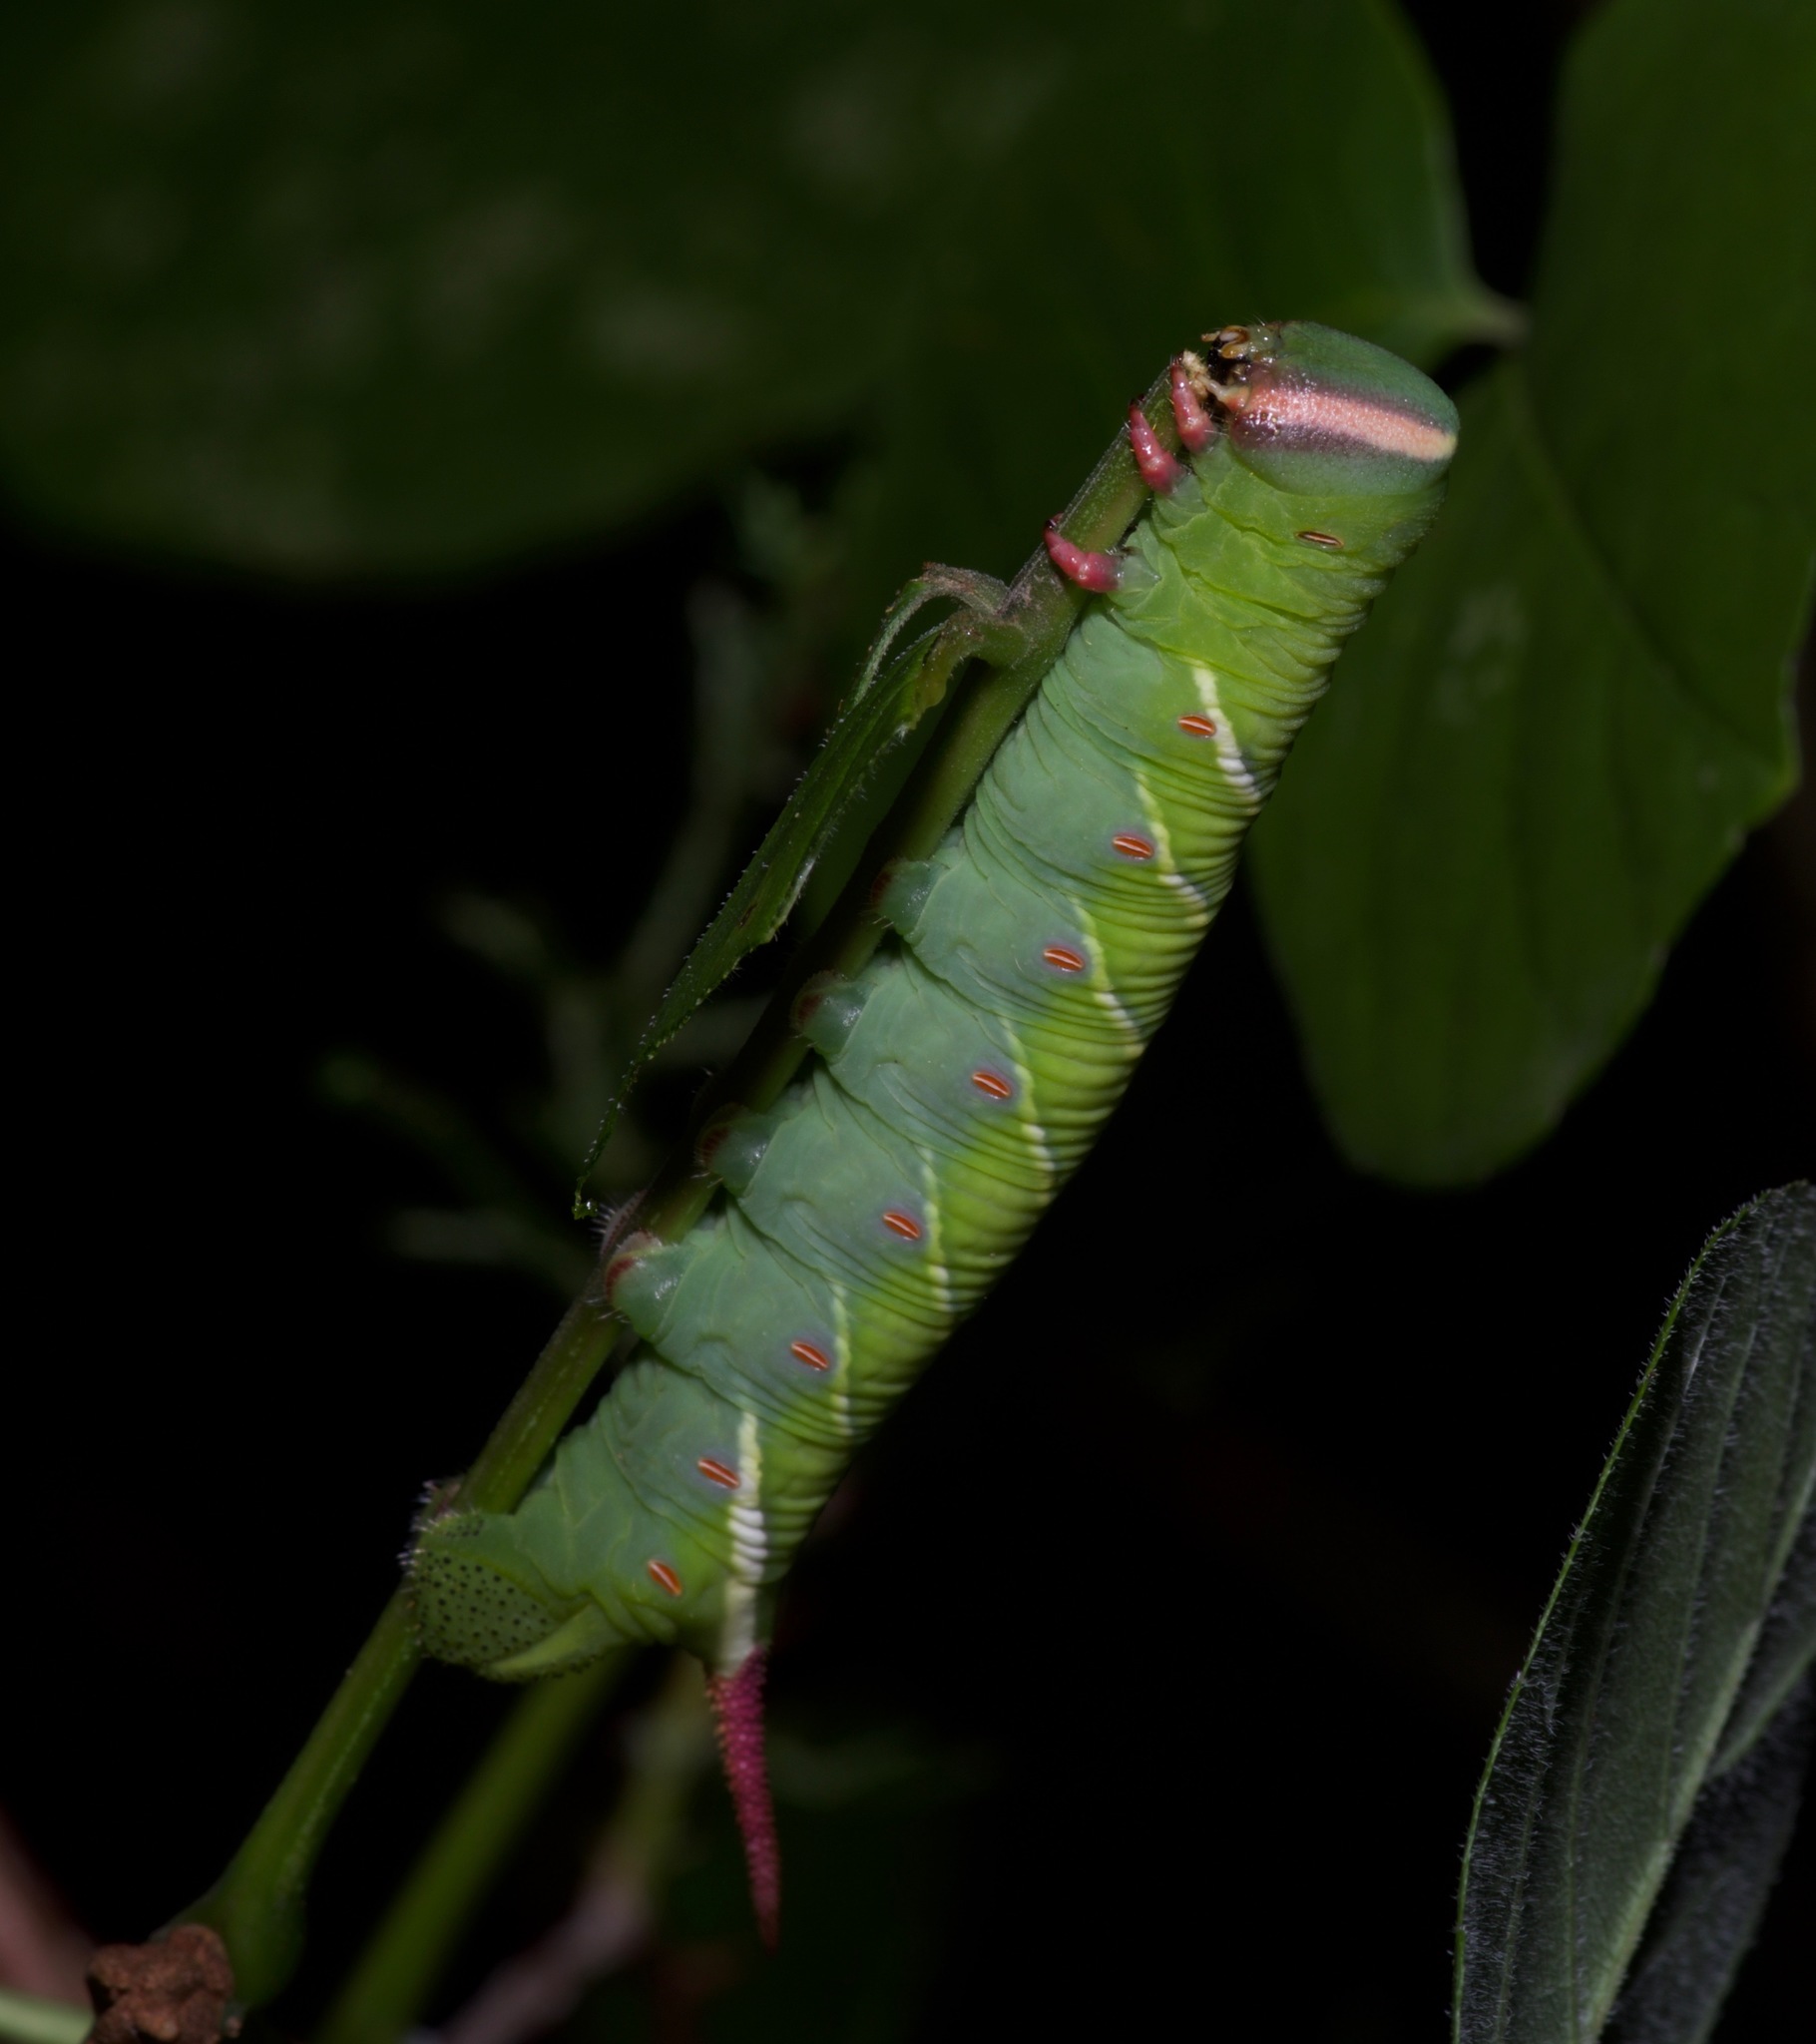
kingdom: Animalia
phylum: Arthropoda
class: Insecta
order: Lepidoptera
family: Sphingidae
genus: Ceratomia
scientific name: Ceratomia undulosa
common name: Waved sphinx
